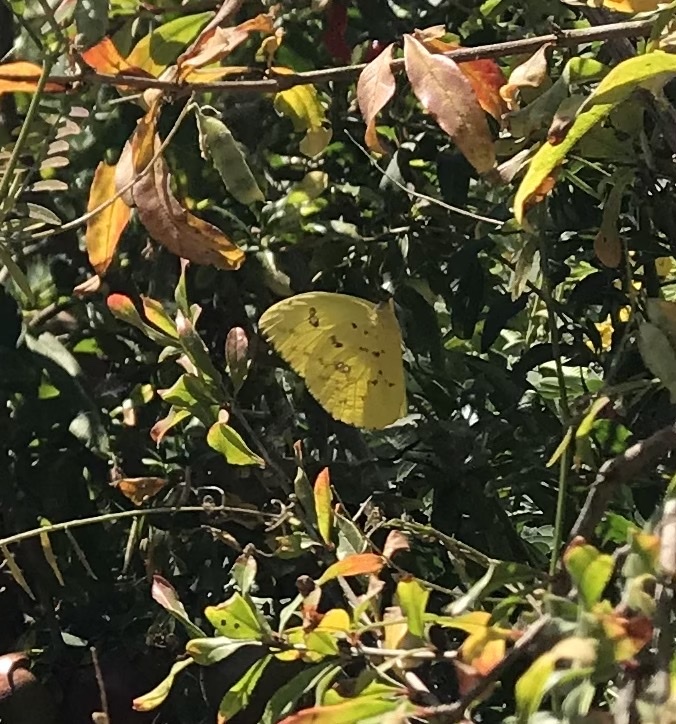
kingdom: Animalia
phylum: Arthropoda
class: Insecta
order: Lepidoptera
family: Pieridae
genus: Phoebis
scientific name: Phoebis sennae
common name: Cloudless sulphur
